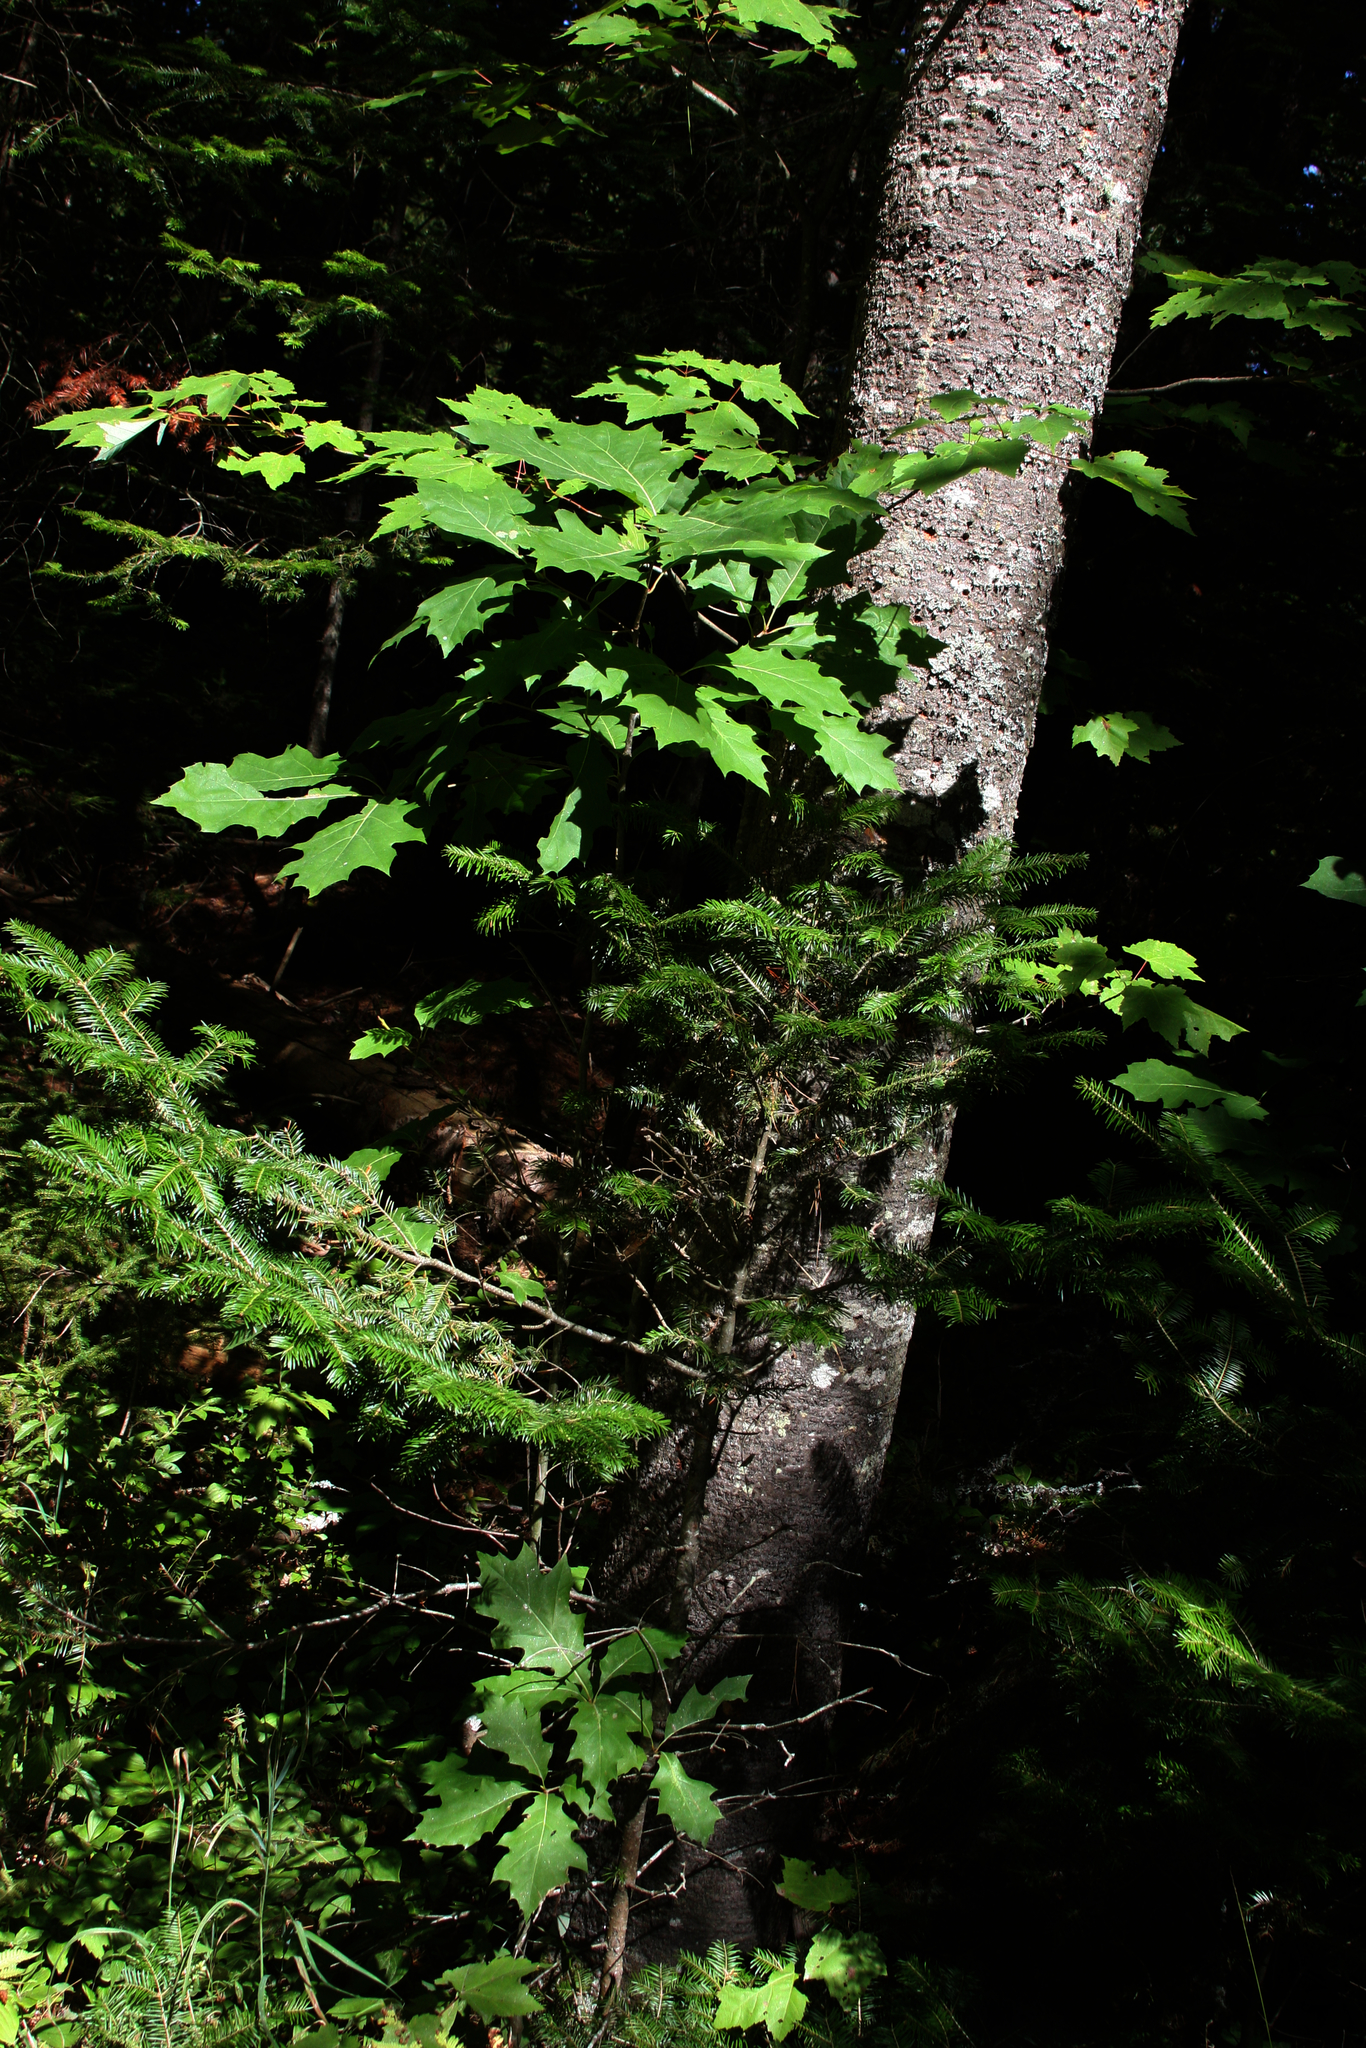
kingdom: Plantae
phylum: Tracheophyta
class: Magnoliopsida
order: Fagales
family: Fagaceae
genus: Quercus
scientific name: Quercus rubra
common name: Red oak
